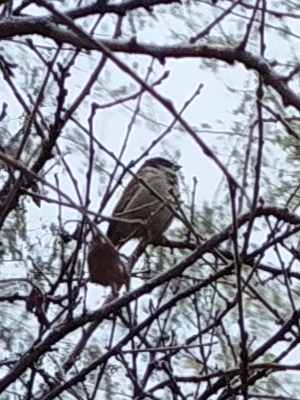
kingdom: Animalia
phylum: Chordata
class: Aves
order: Passeriformes
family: Passeridae
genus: Passer
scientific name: Passer domesticus
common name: House sparrow
